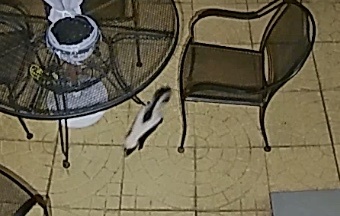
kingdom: Animalia
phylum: Chordata
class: Mammalia
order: Carnivora
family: Mephitidae
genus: Mephitis
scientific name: Mephitis mephitis
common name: Striped skunk
